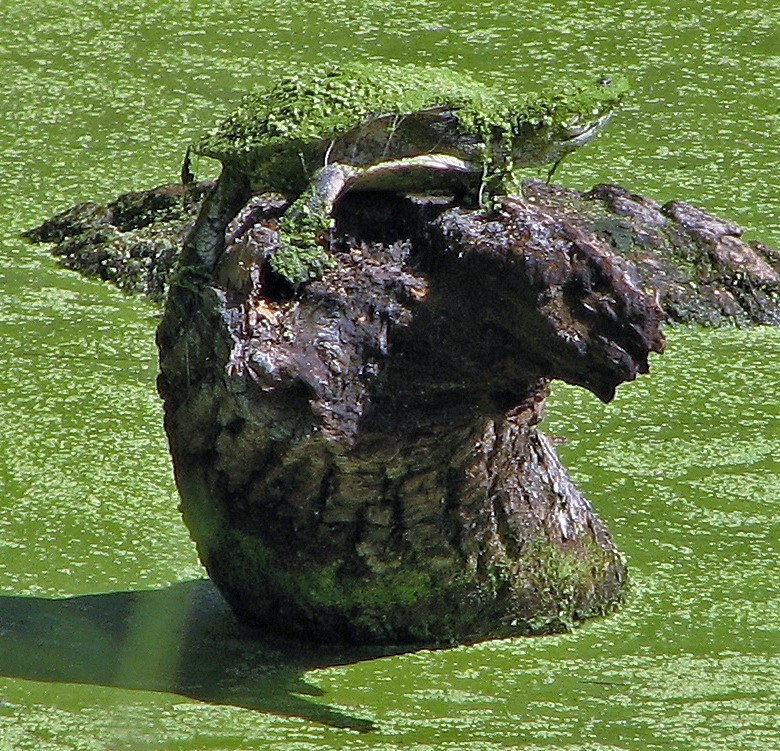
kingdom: Animalia
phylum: Chordata
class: Testudines
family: Chelidae
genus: Phrynops
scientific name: Phrynops hilarii
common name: Side-necked turtle of saint hillaire
